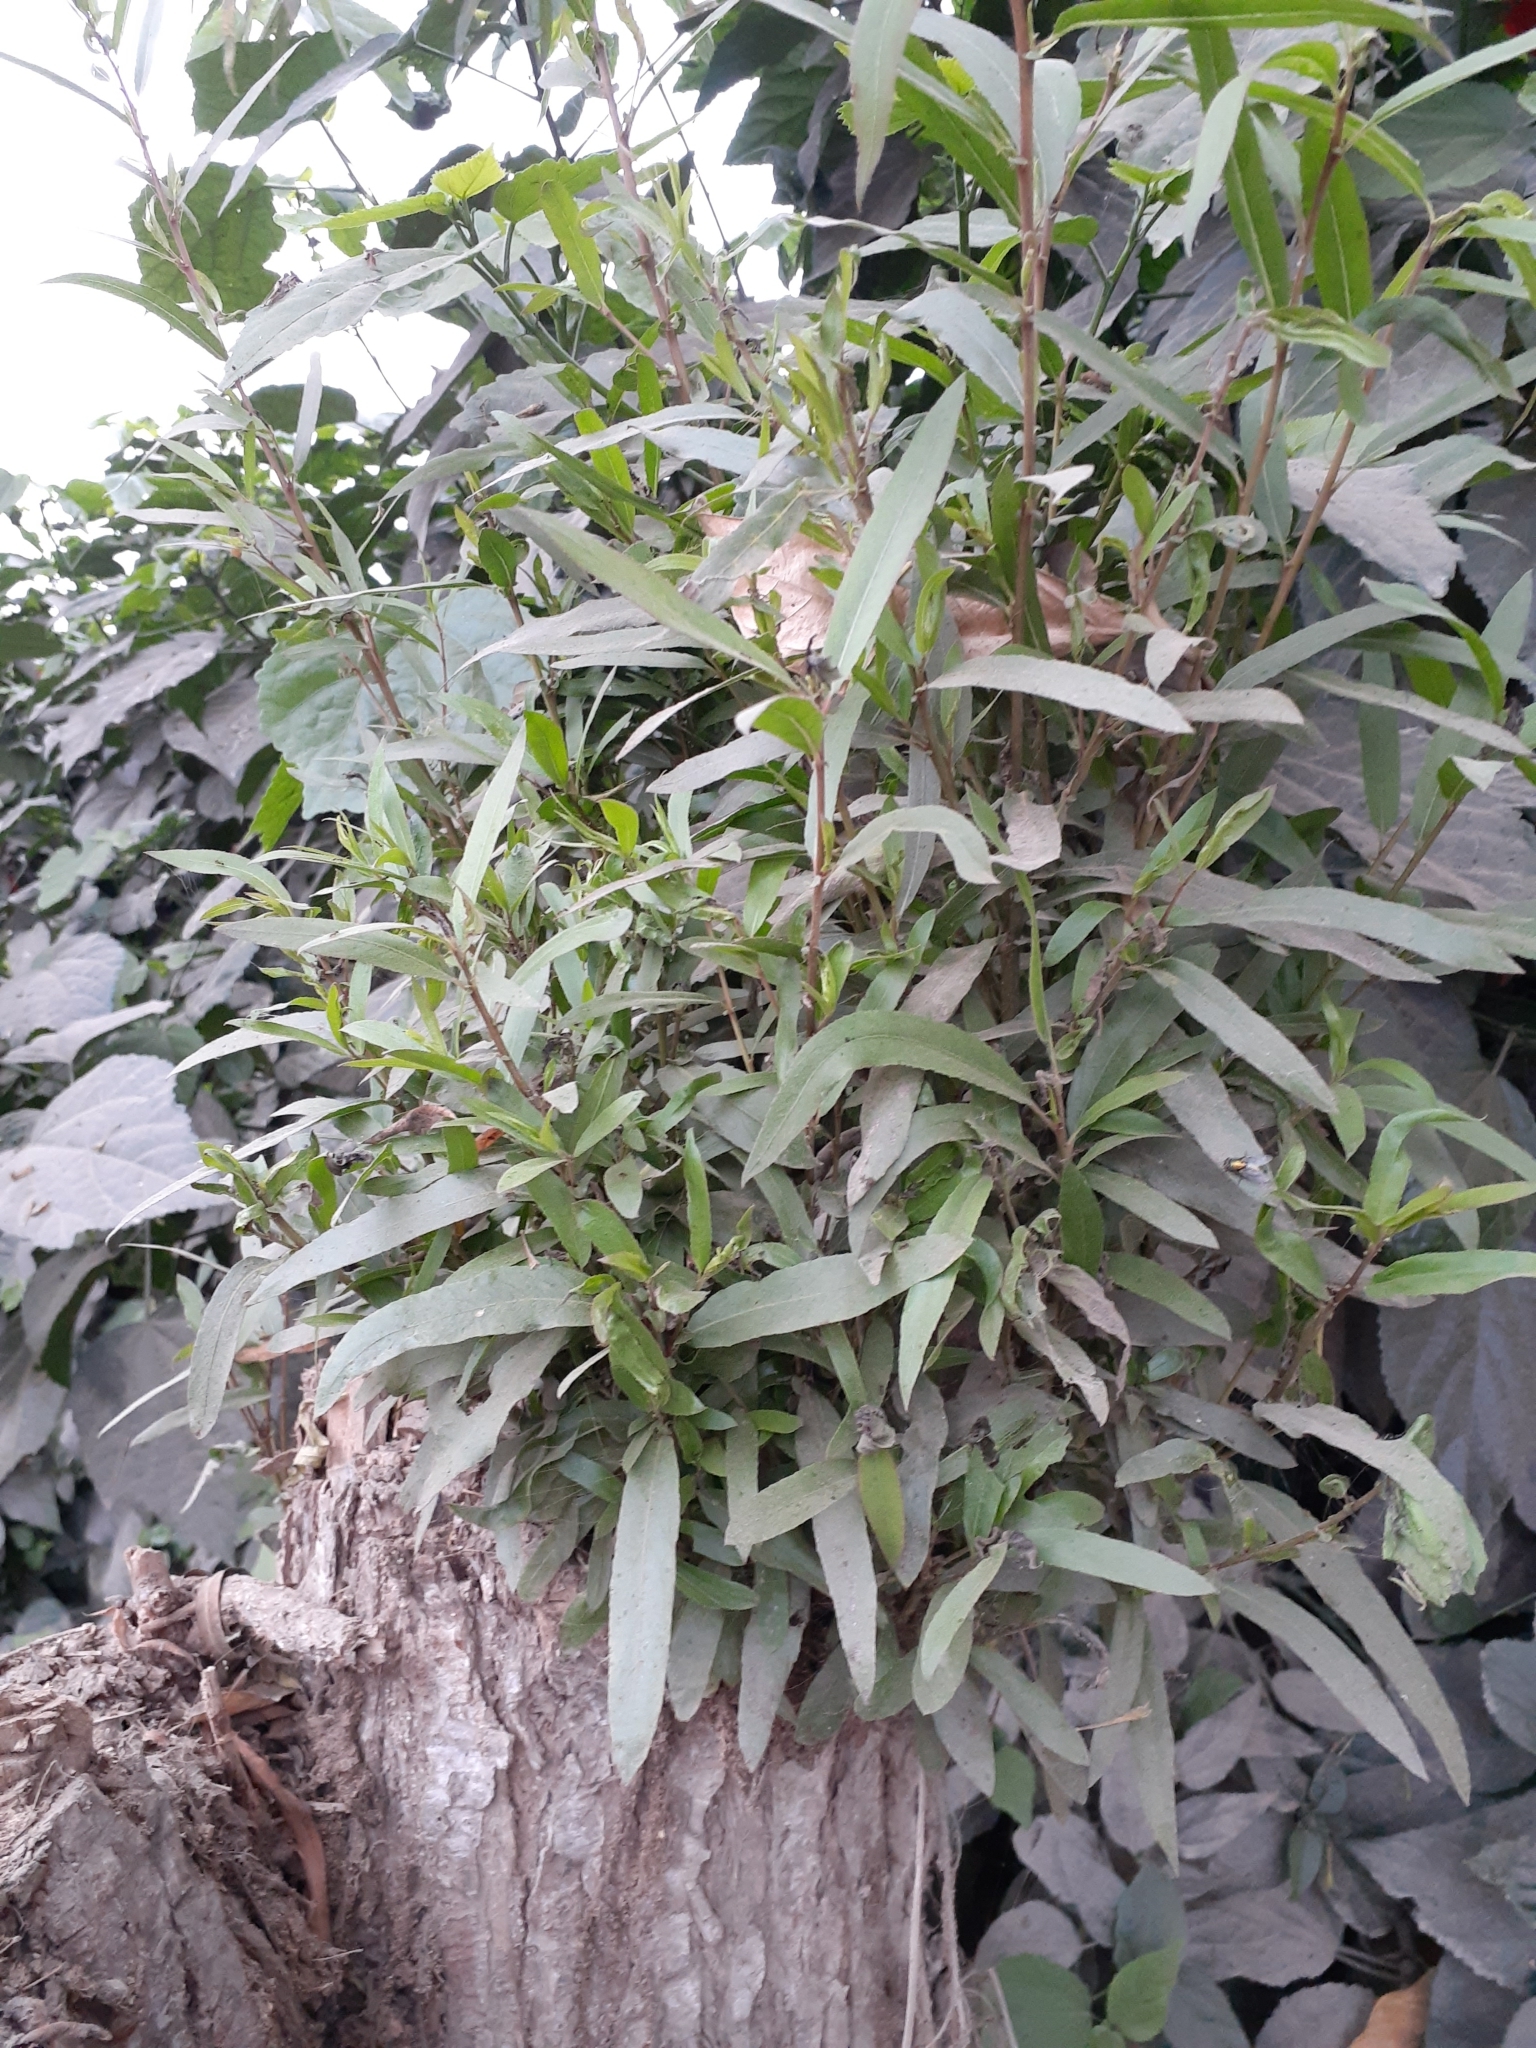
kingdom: Plantae
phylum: Tracheophyta
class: Magnoliopsida
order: Malpighiales
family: Salicaceae
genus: Salix
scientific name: Salix humboldtiana
